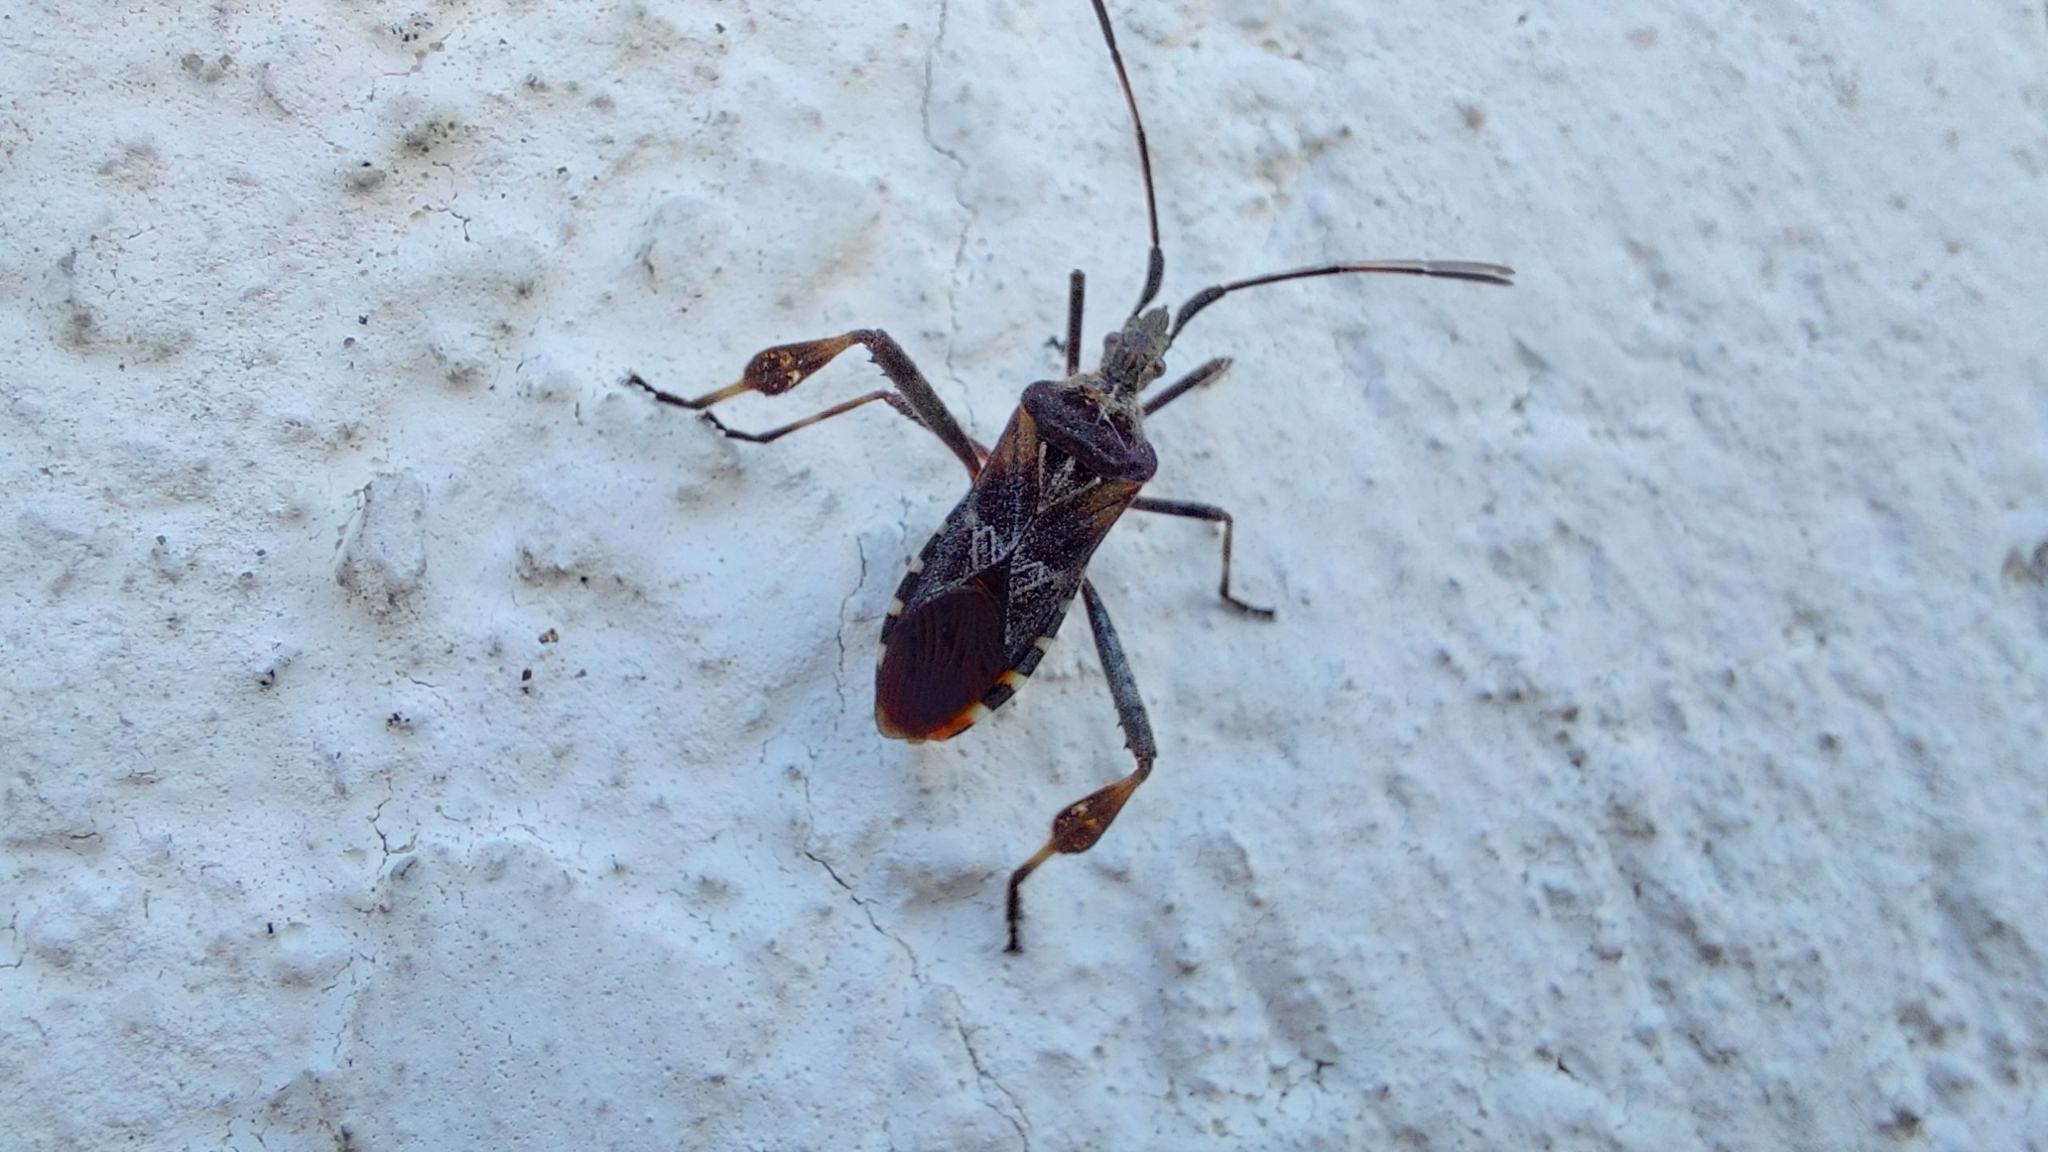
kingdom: Animalia
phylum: Arthropoda
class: Insecta
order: Hemiptera
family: Coreidae
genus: Leptoglossus
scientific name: Leptoglossus occidentalis
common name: Western conifer-seed bug
